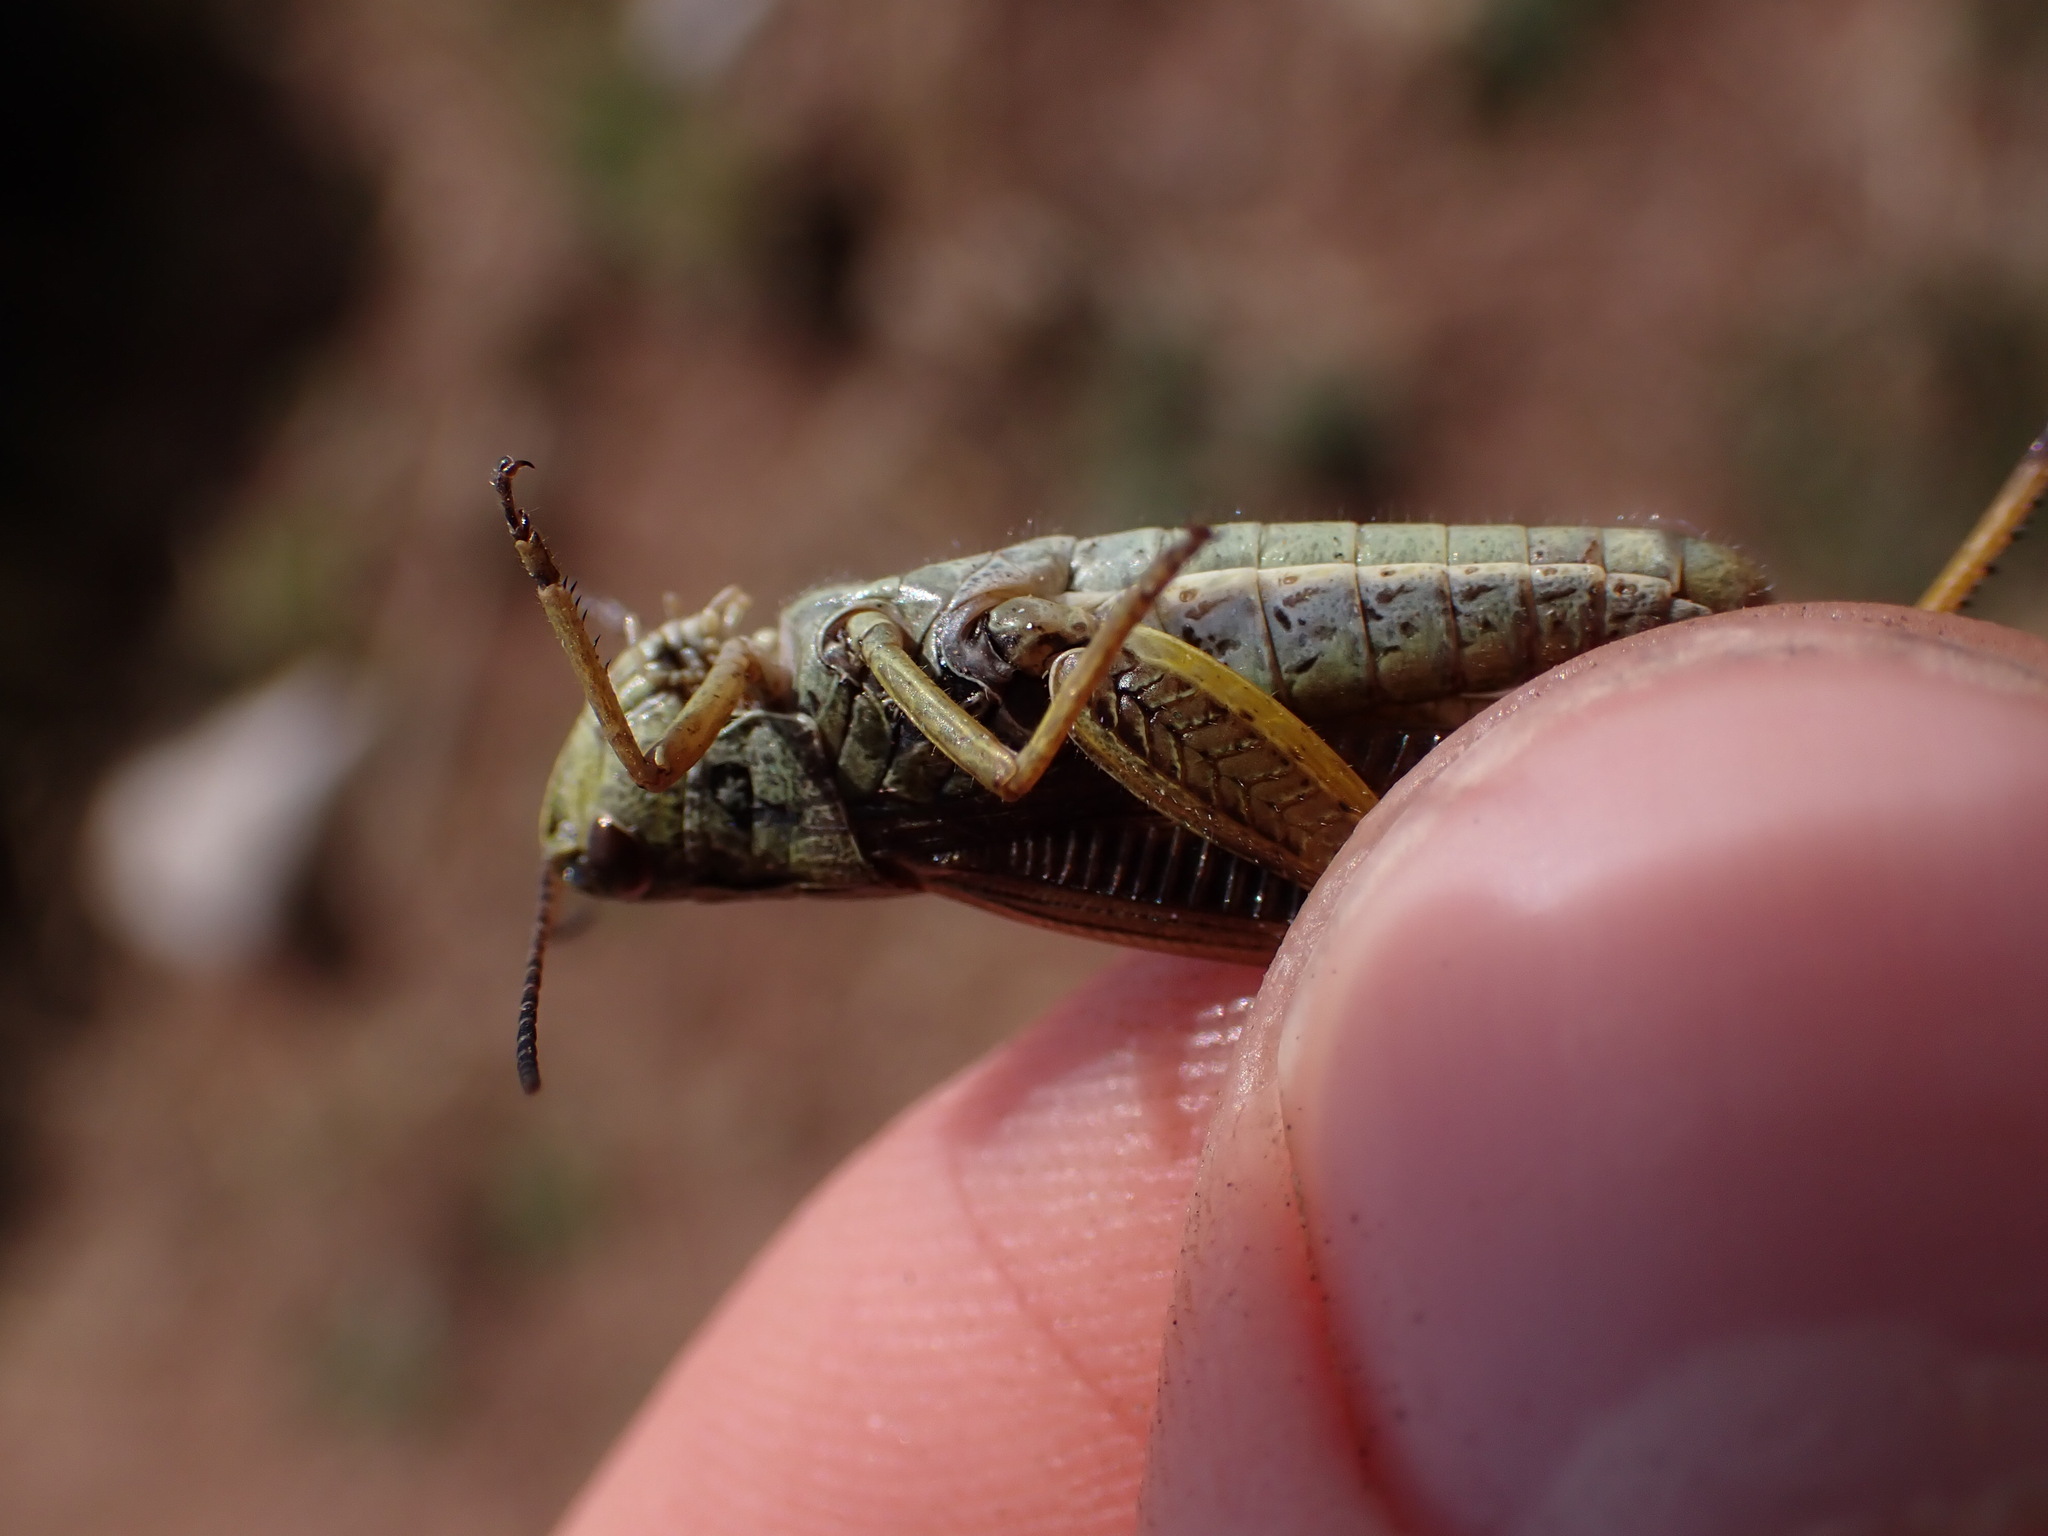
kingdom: Animalia
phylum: Arthropoda
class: Insecta
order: Orthoptera
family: Acrididae
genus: Stauroderus
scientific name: Stauroderus scalaris
